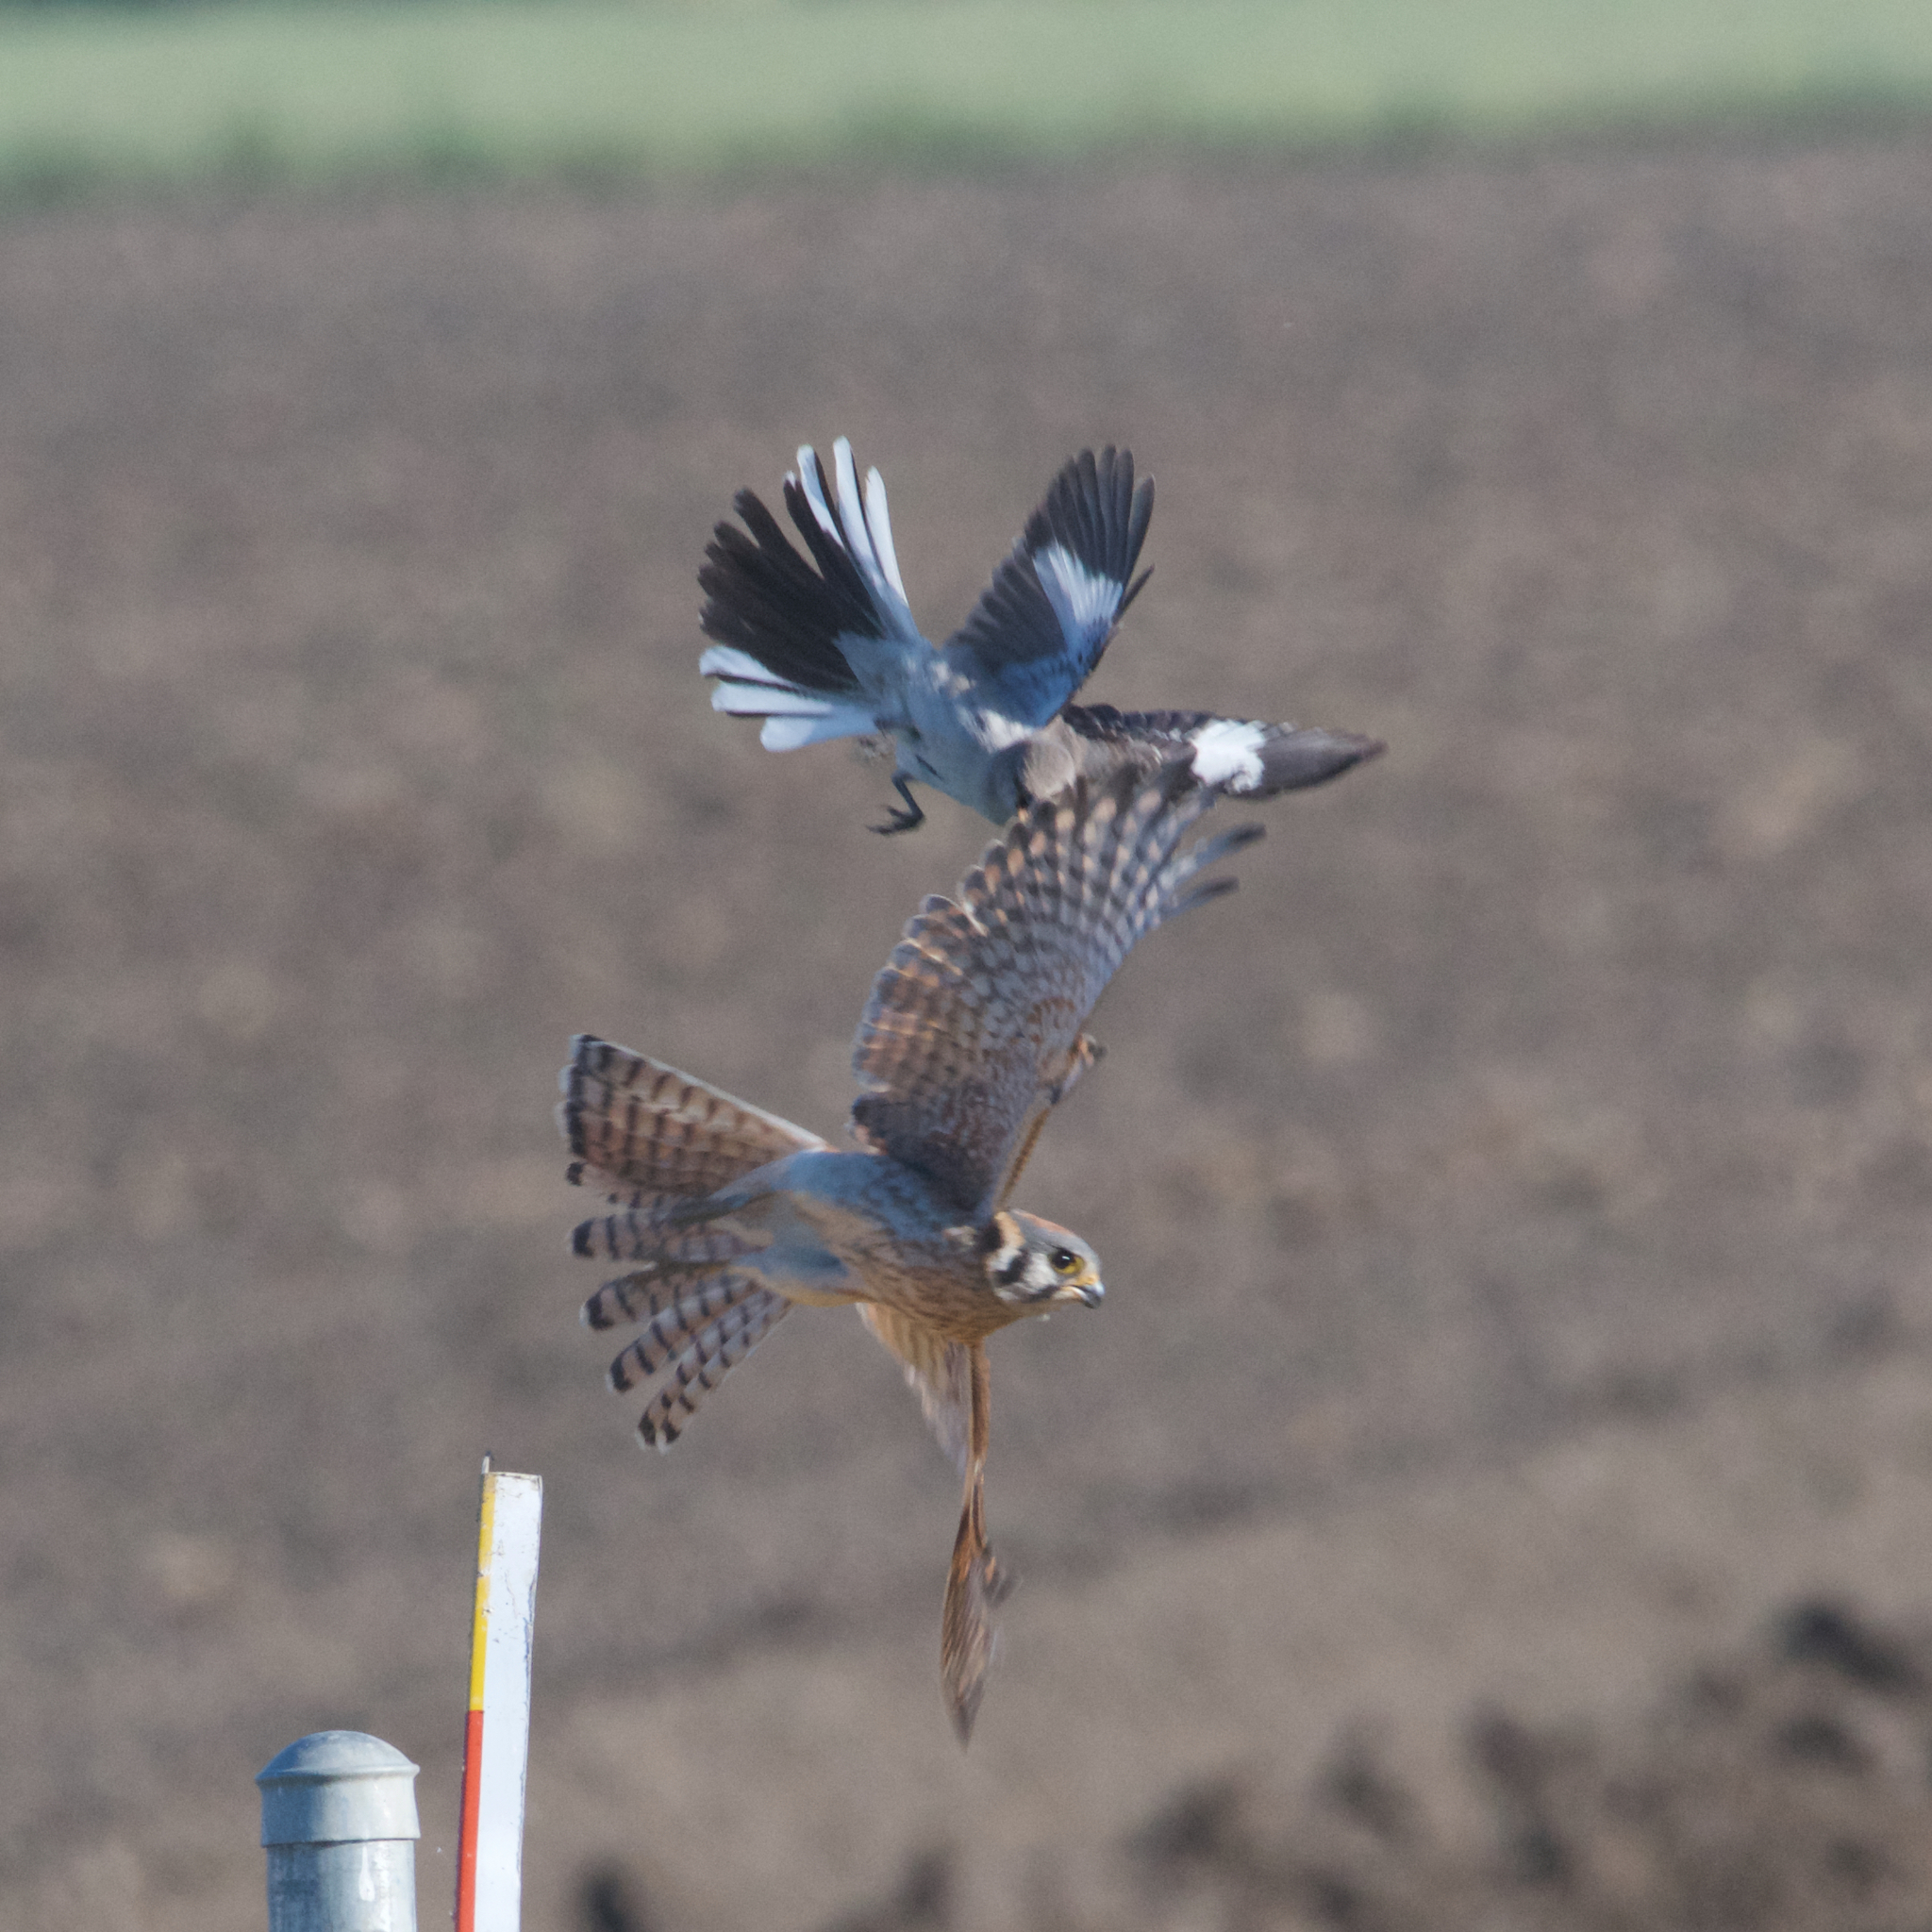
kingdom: Animalia
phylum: Chordata
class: Aves
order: Falconiformes
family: Falconidae
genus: Falco
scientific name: Falco sparverius
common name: American kestrel
